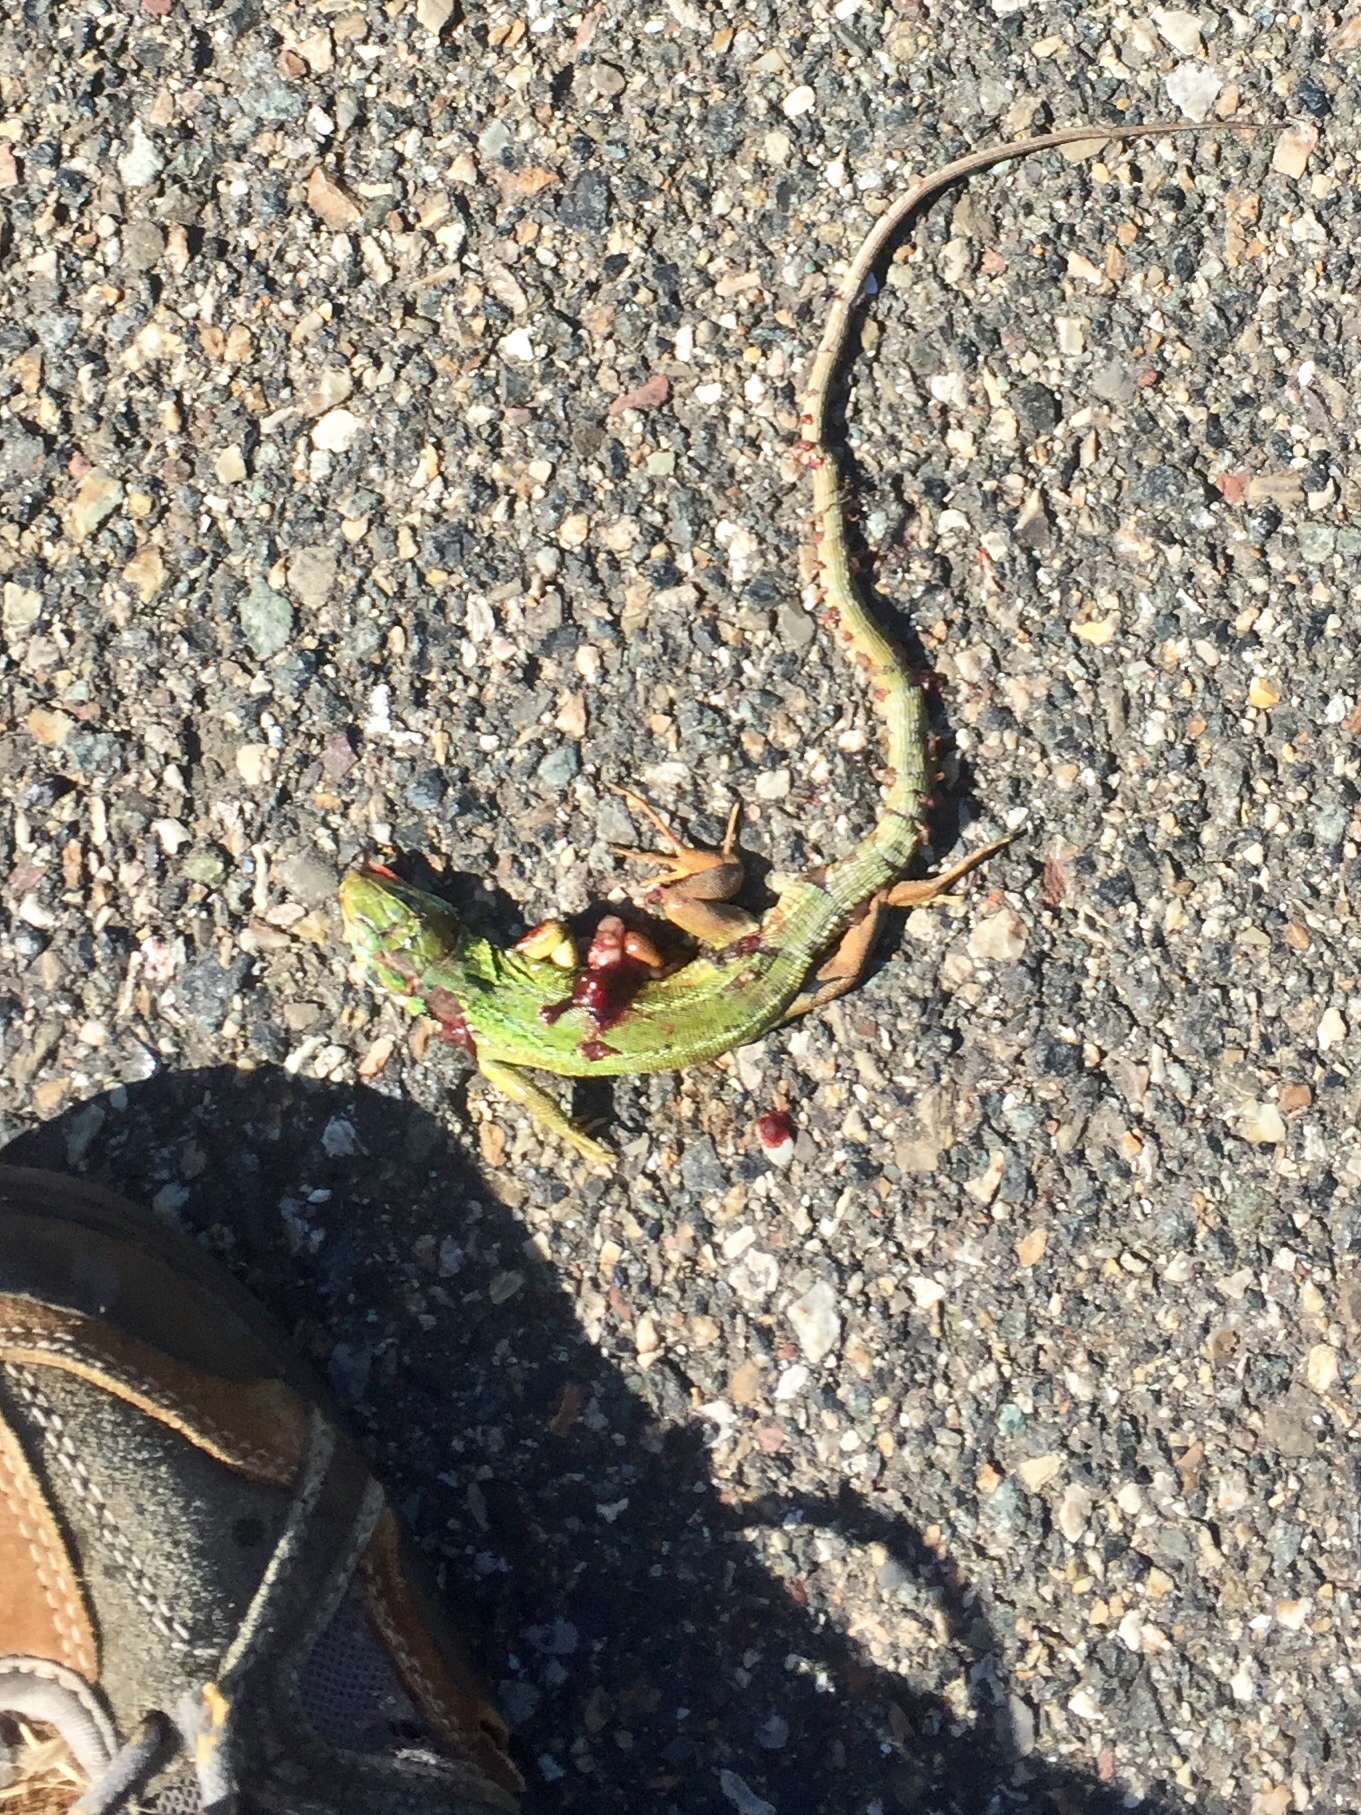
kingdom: Animalia
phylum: Chordata
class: Squamata
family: Lacertidae
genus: Lacerta
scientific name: Lacerta bilineata
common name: Western green lizard
